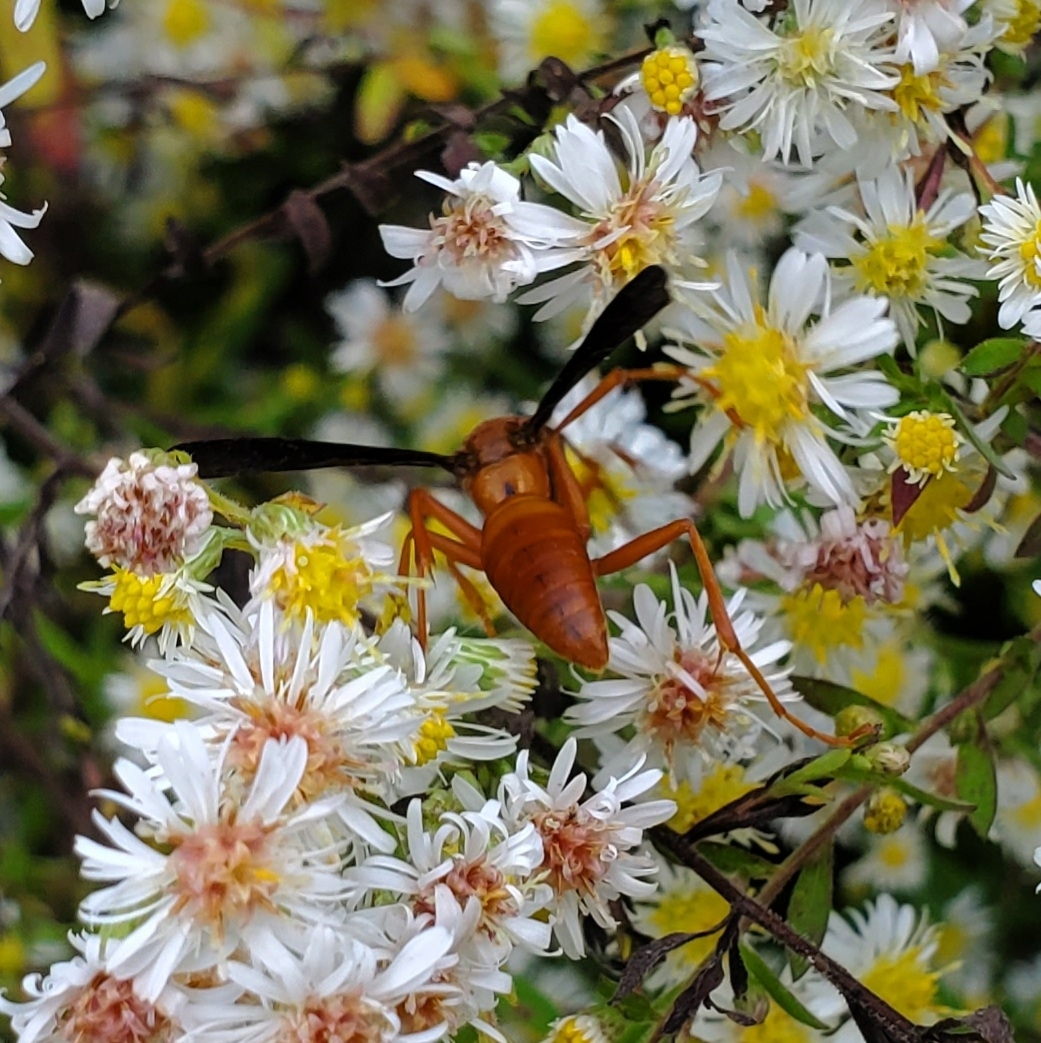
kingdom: Animalia
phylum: Arthropoda
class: Insecta
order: Hymenoptera
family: Eumenidae
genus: Polistes
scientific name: Polistes carolina
